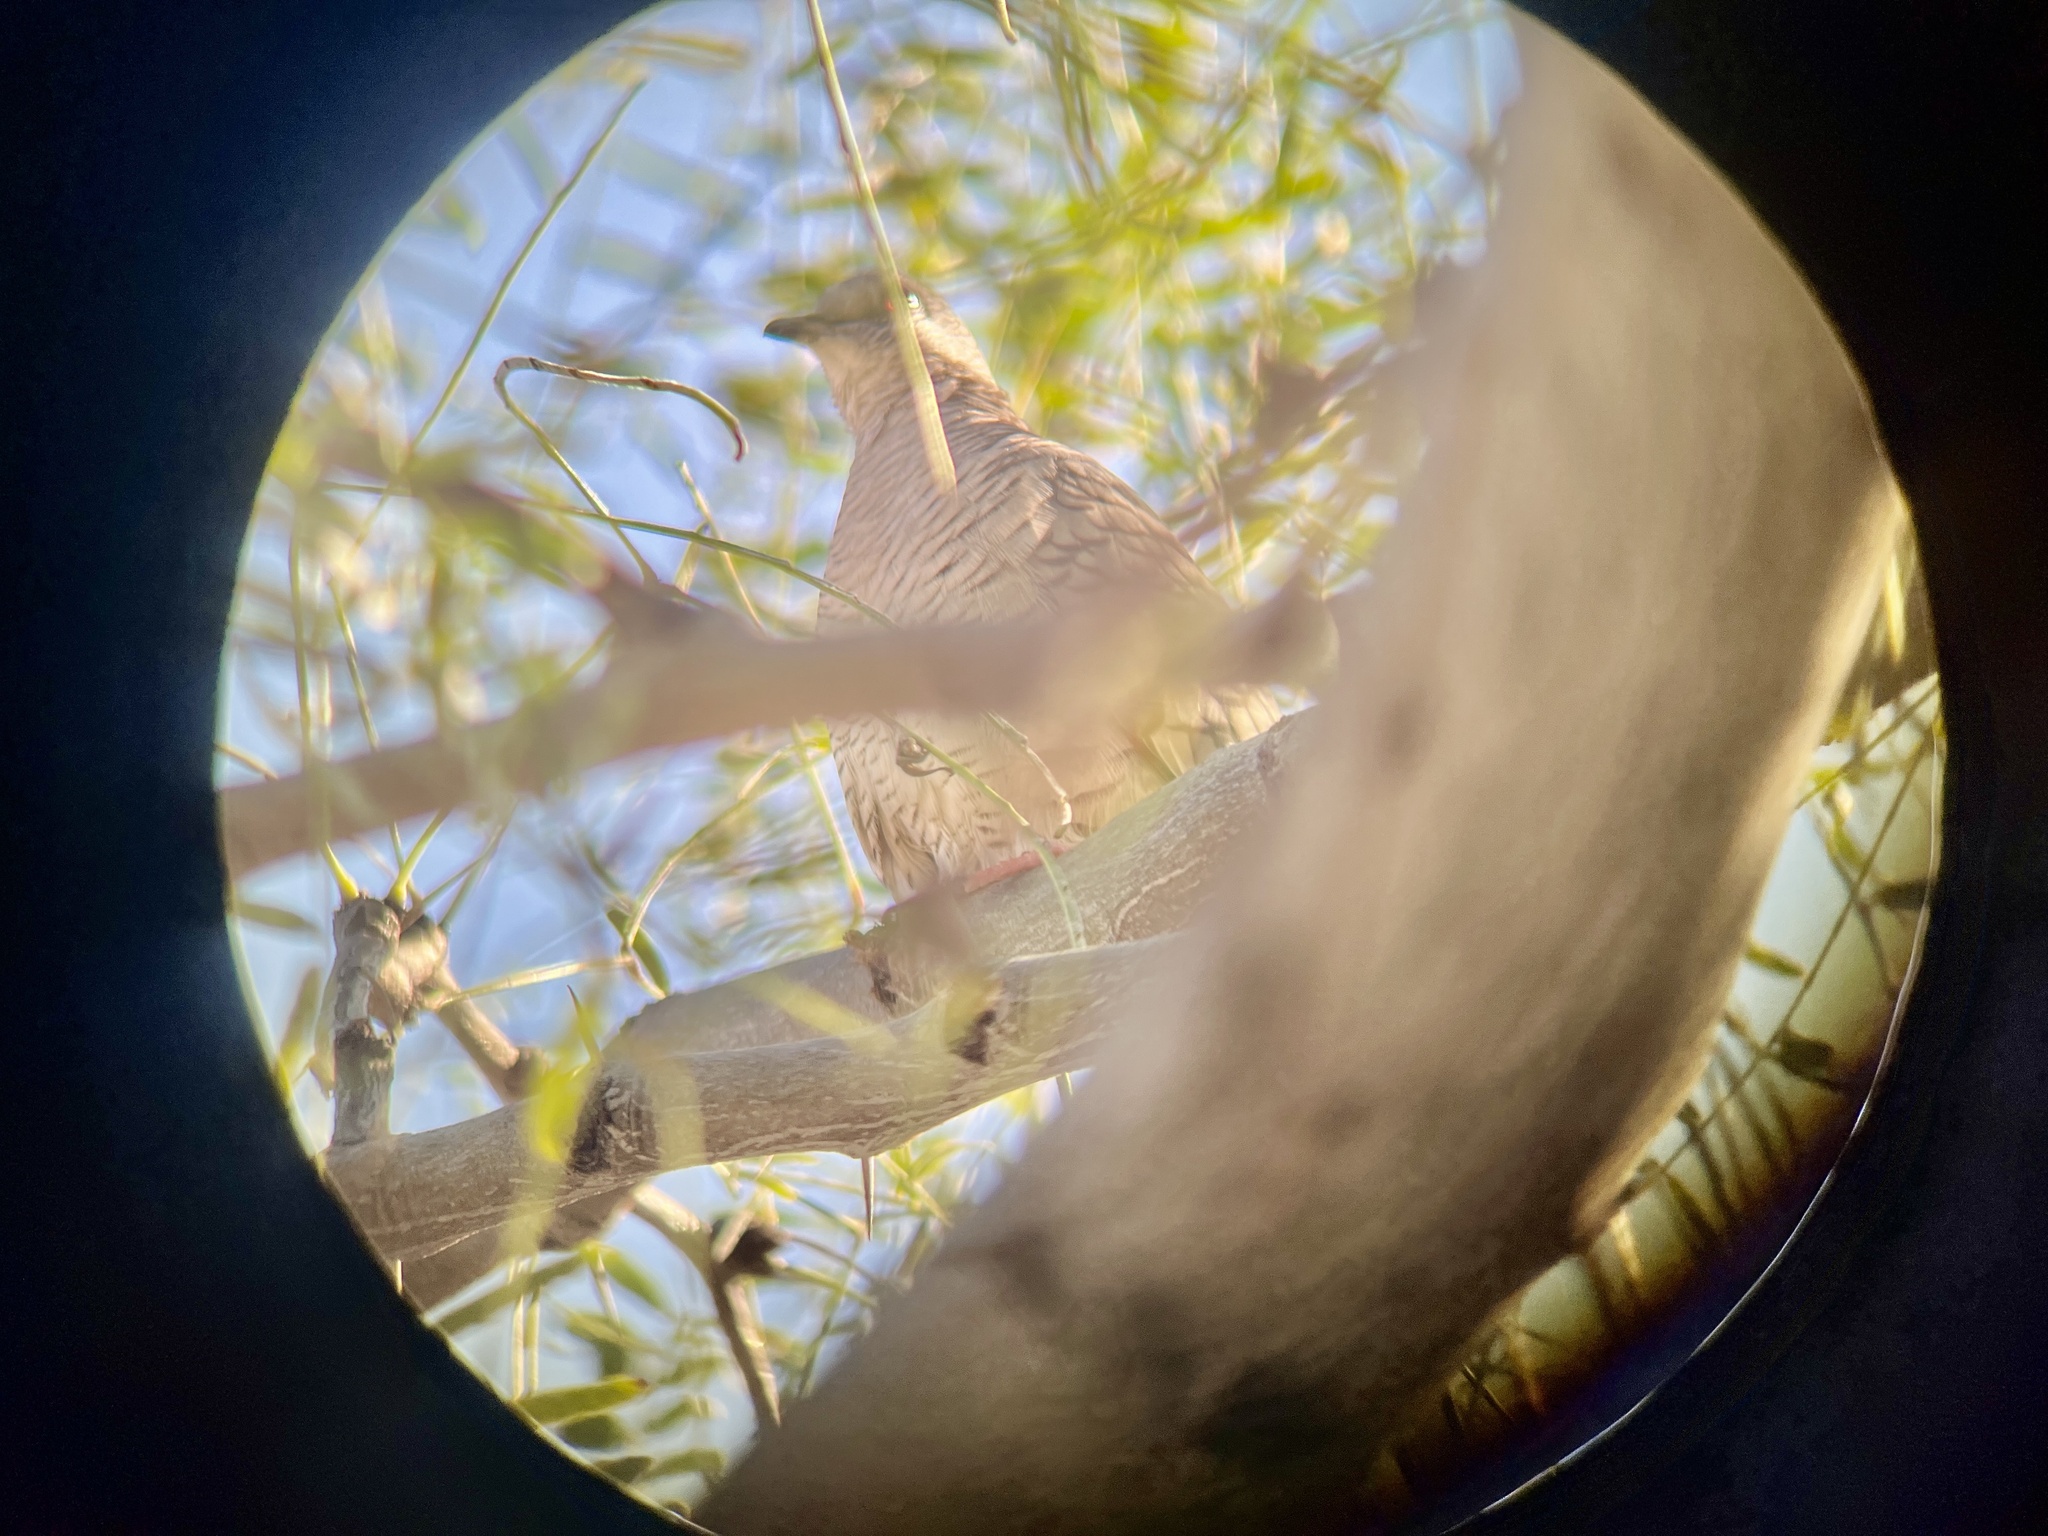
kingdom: Animalia
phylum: Chordata
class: Aves
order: Columbiformes
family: Columbidae
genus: Columbina
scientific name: Columbina inca
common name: Inca dove
